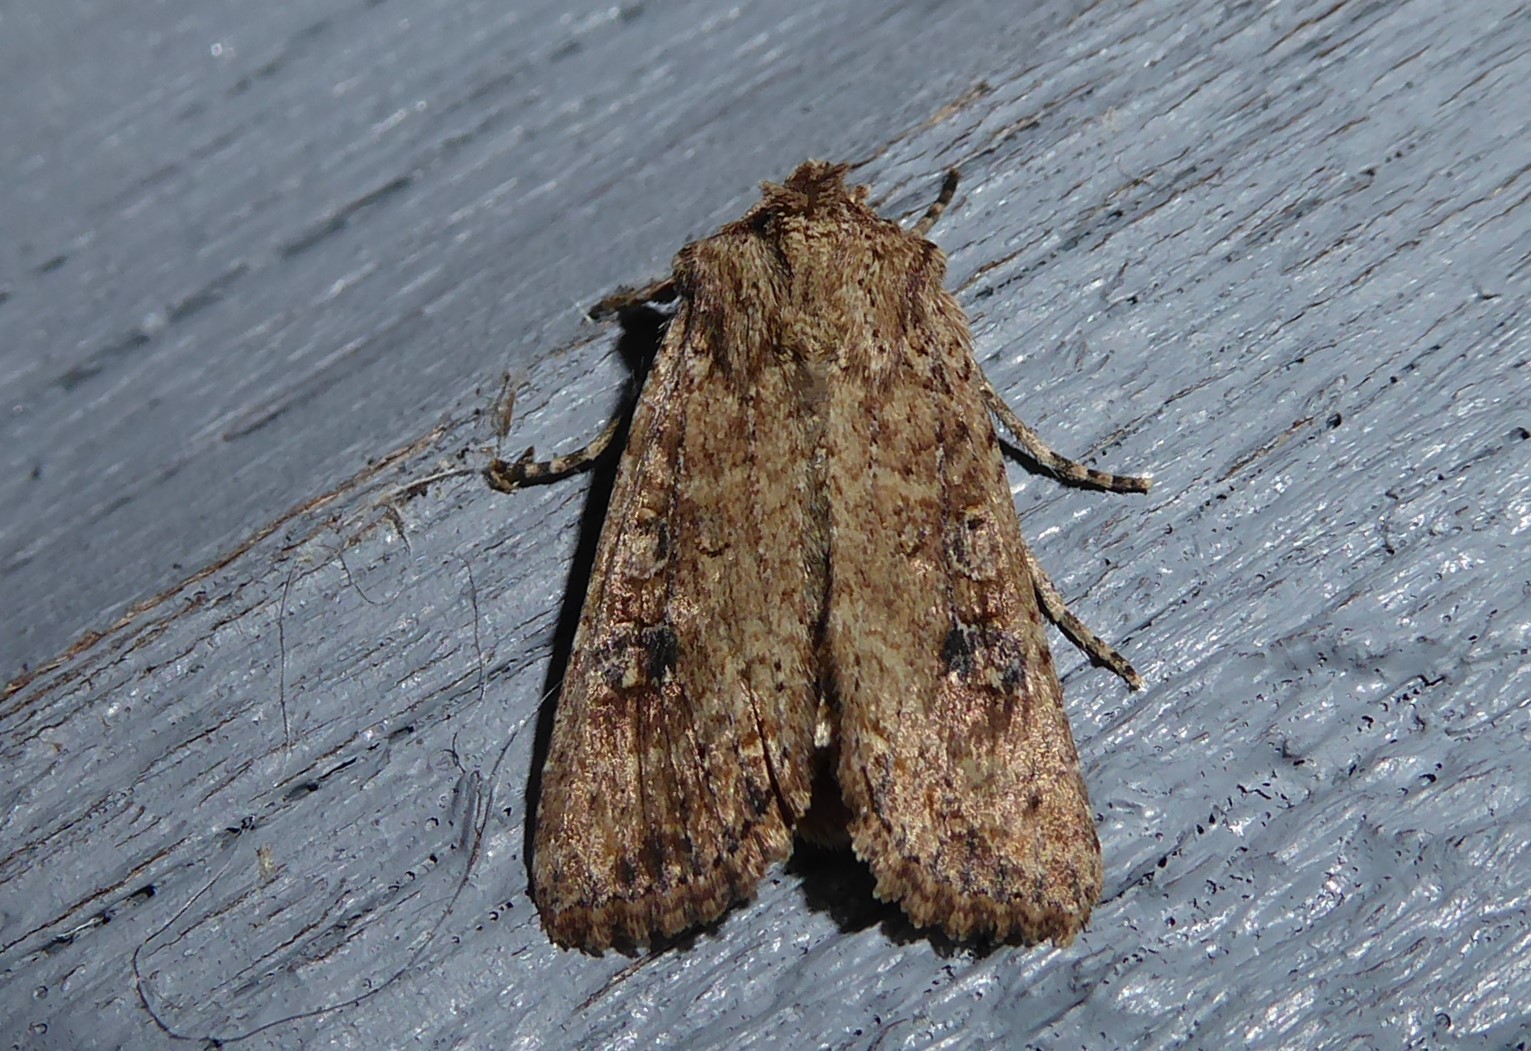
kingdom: Animalia
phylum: Arthropoda
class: Insecta
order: Lepidoptera
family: Noctuidae
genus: Ichneutica
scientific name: Ichneutica morosa
